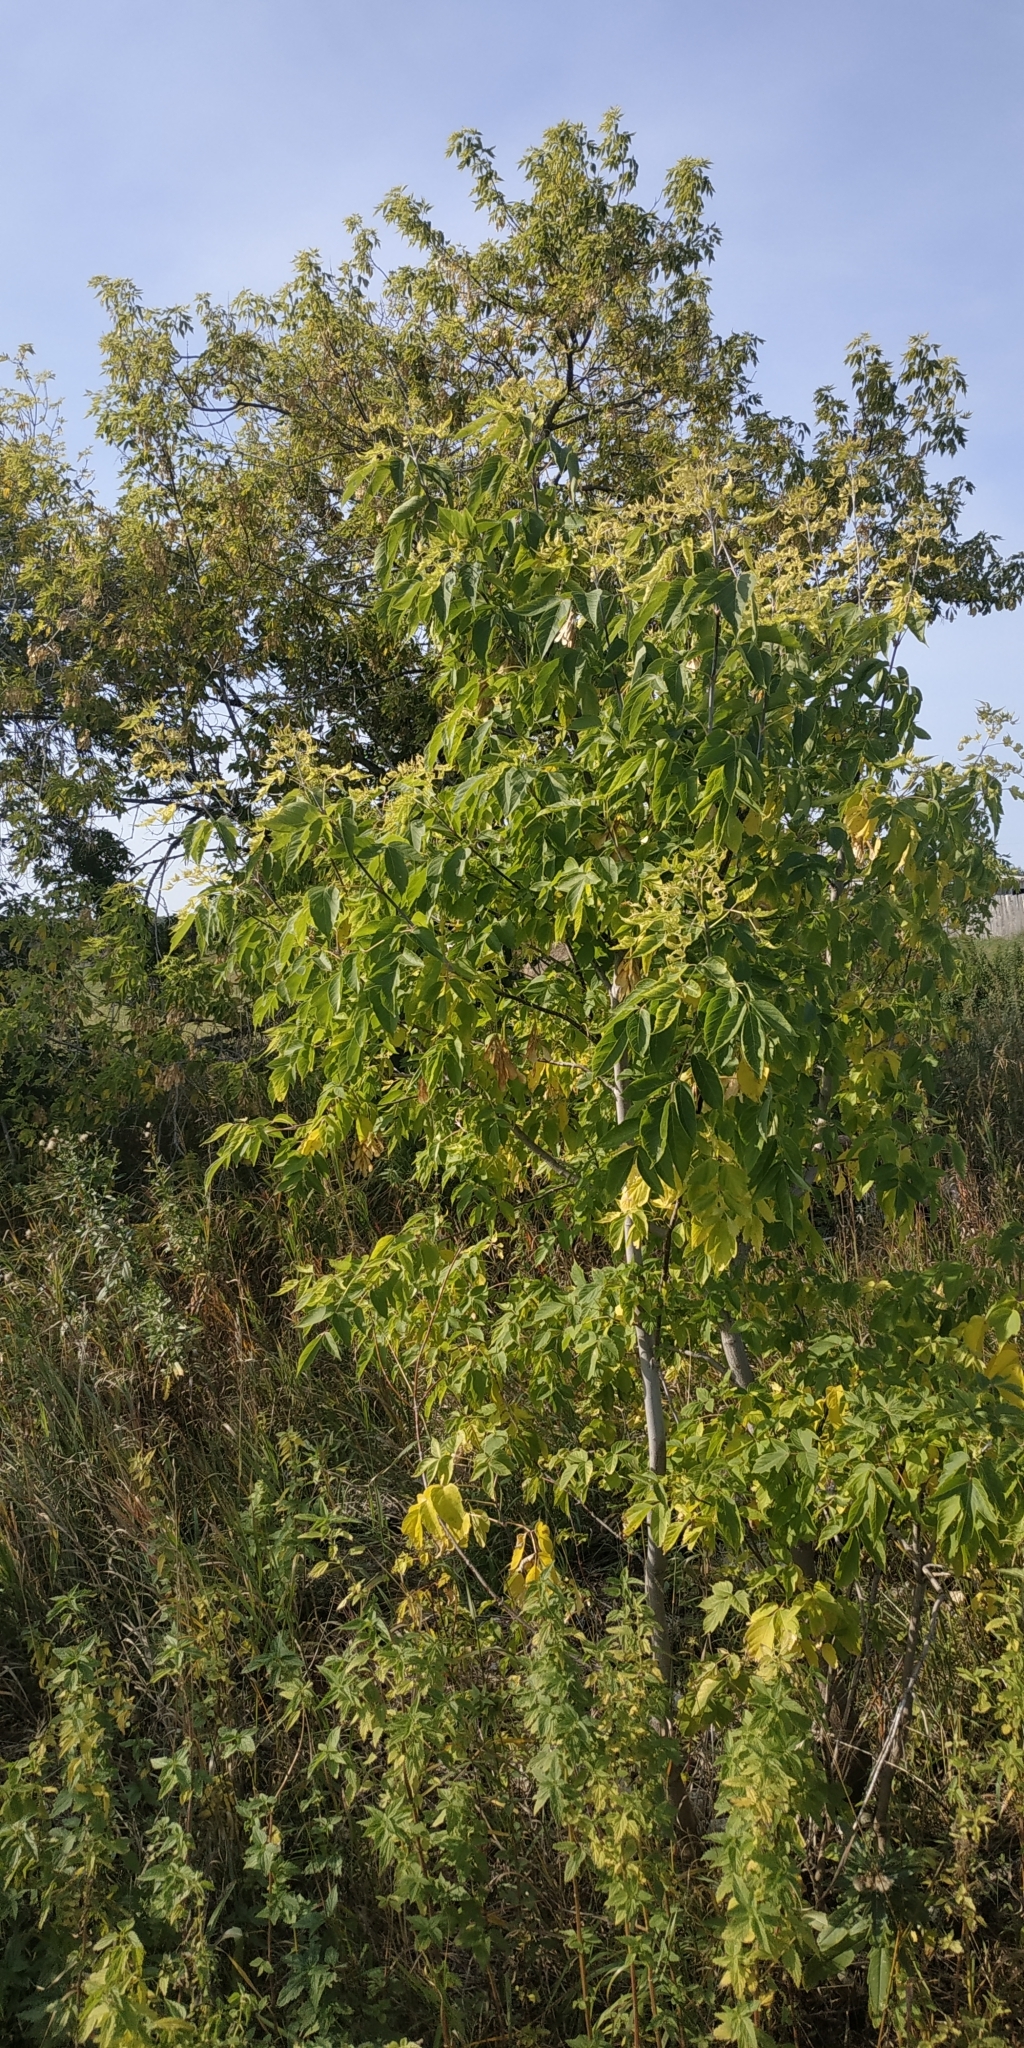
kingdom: Plantae
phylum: Tracheophyta
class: Magnoliopsida
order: Sapindales
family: Sapindaceae
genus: Acer
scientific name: Acer negundo
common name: Ashleaf maple
